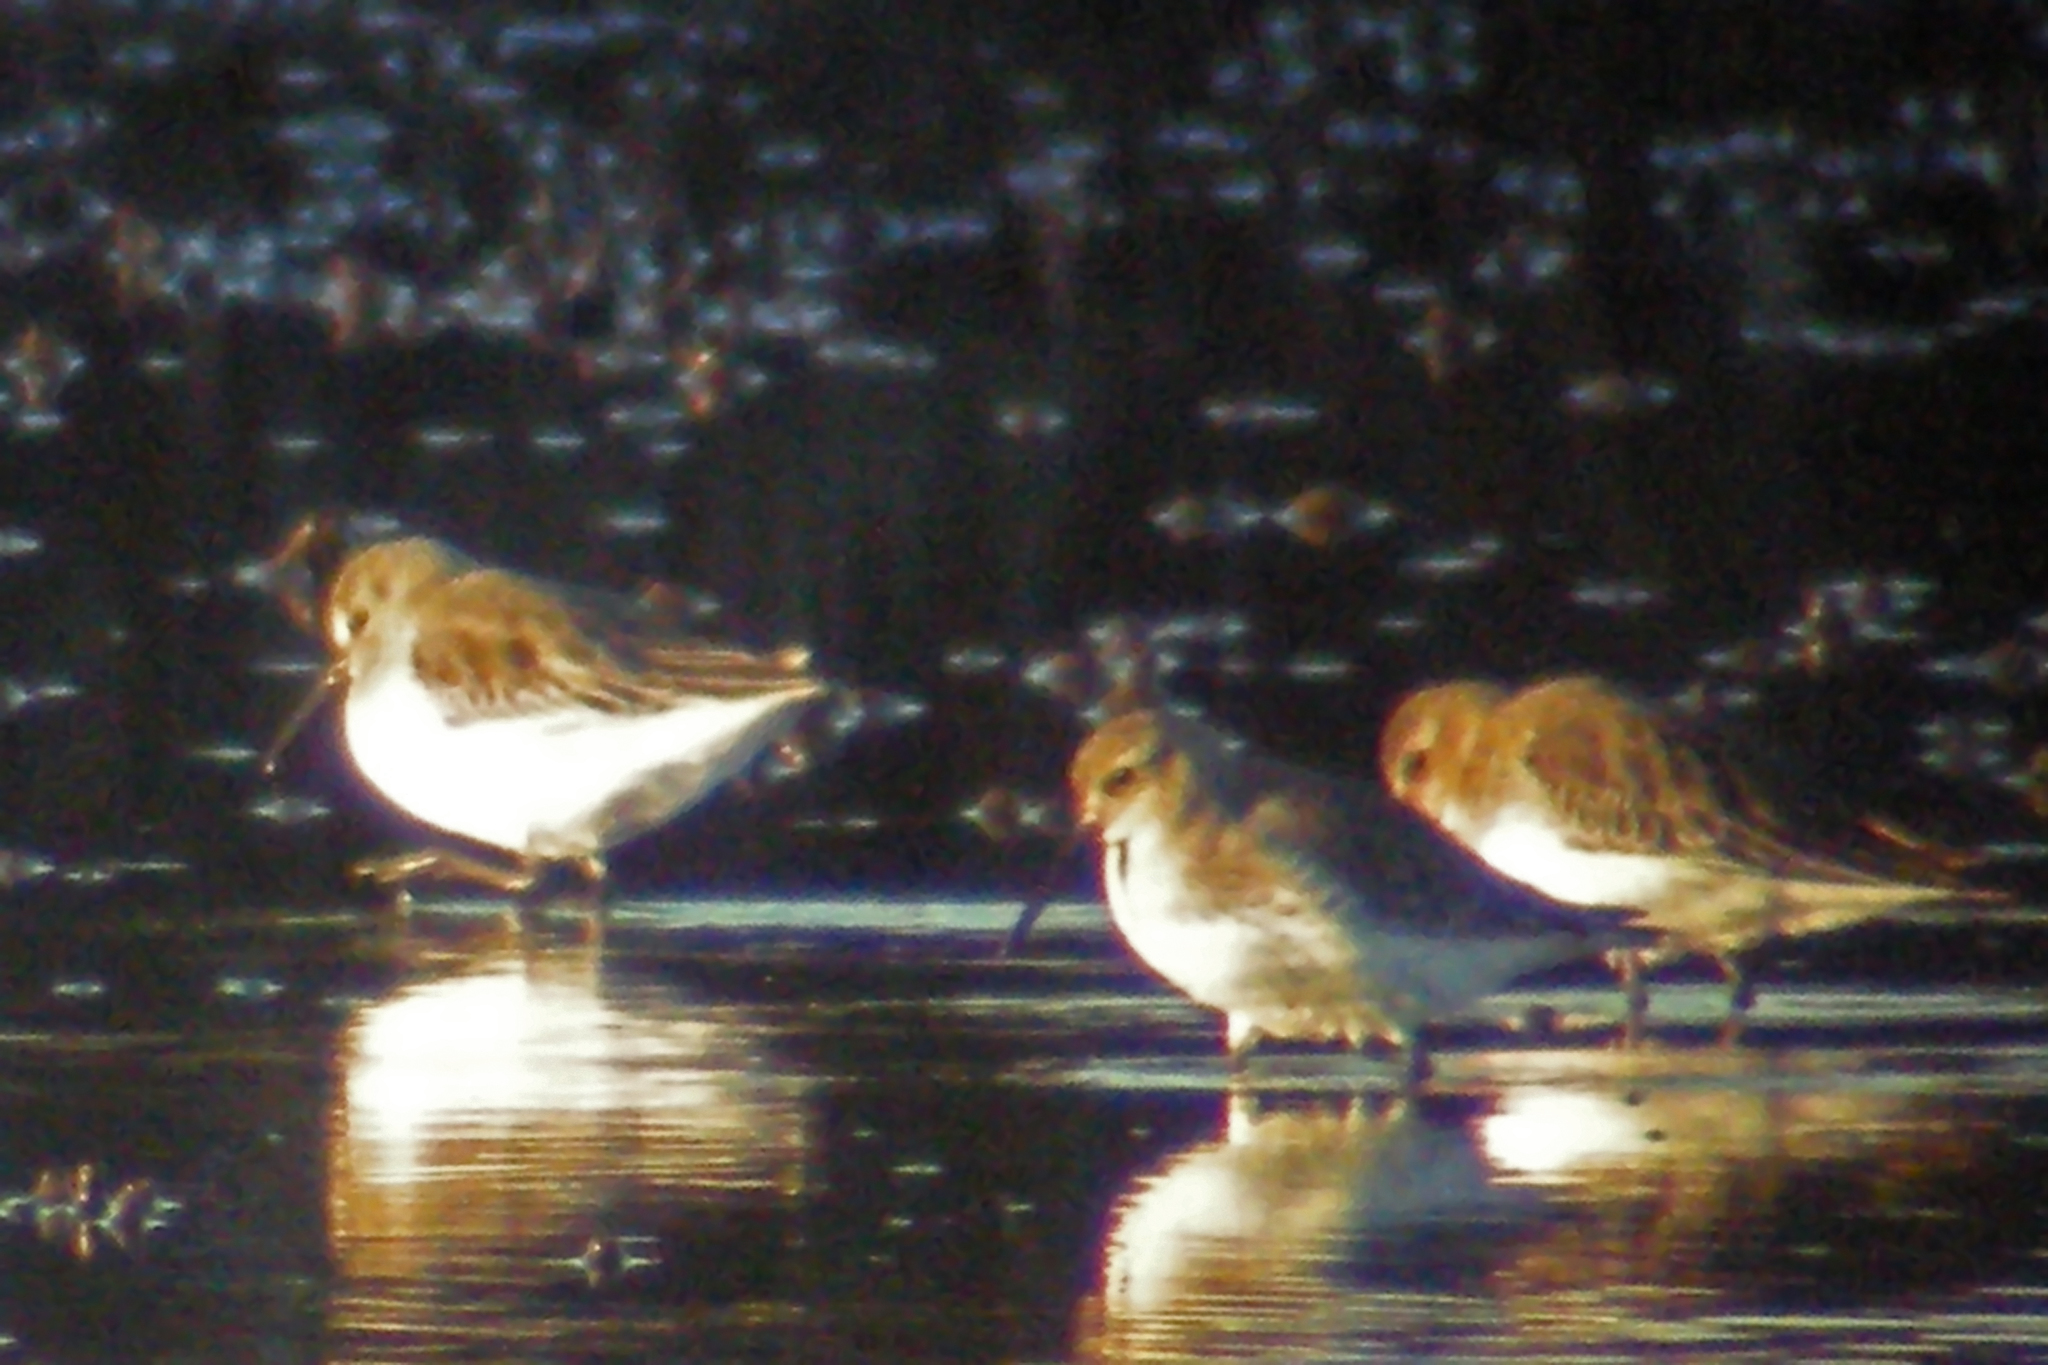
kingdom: Animalia
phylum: Chordata
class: Aves
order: Charadriiformes
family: Scolopacidae
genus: Calidris
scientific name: Calidris alpina
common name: Dunlin
